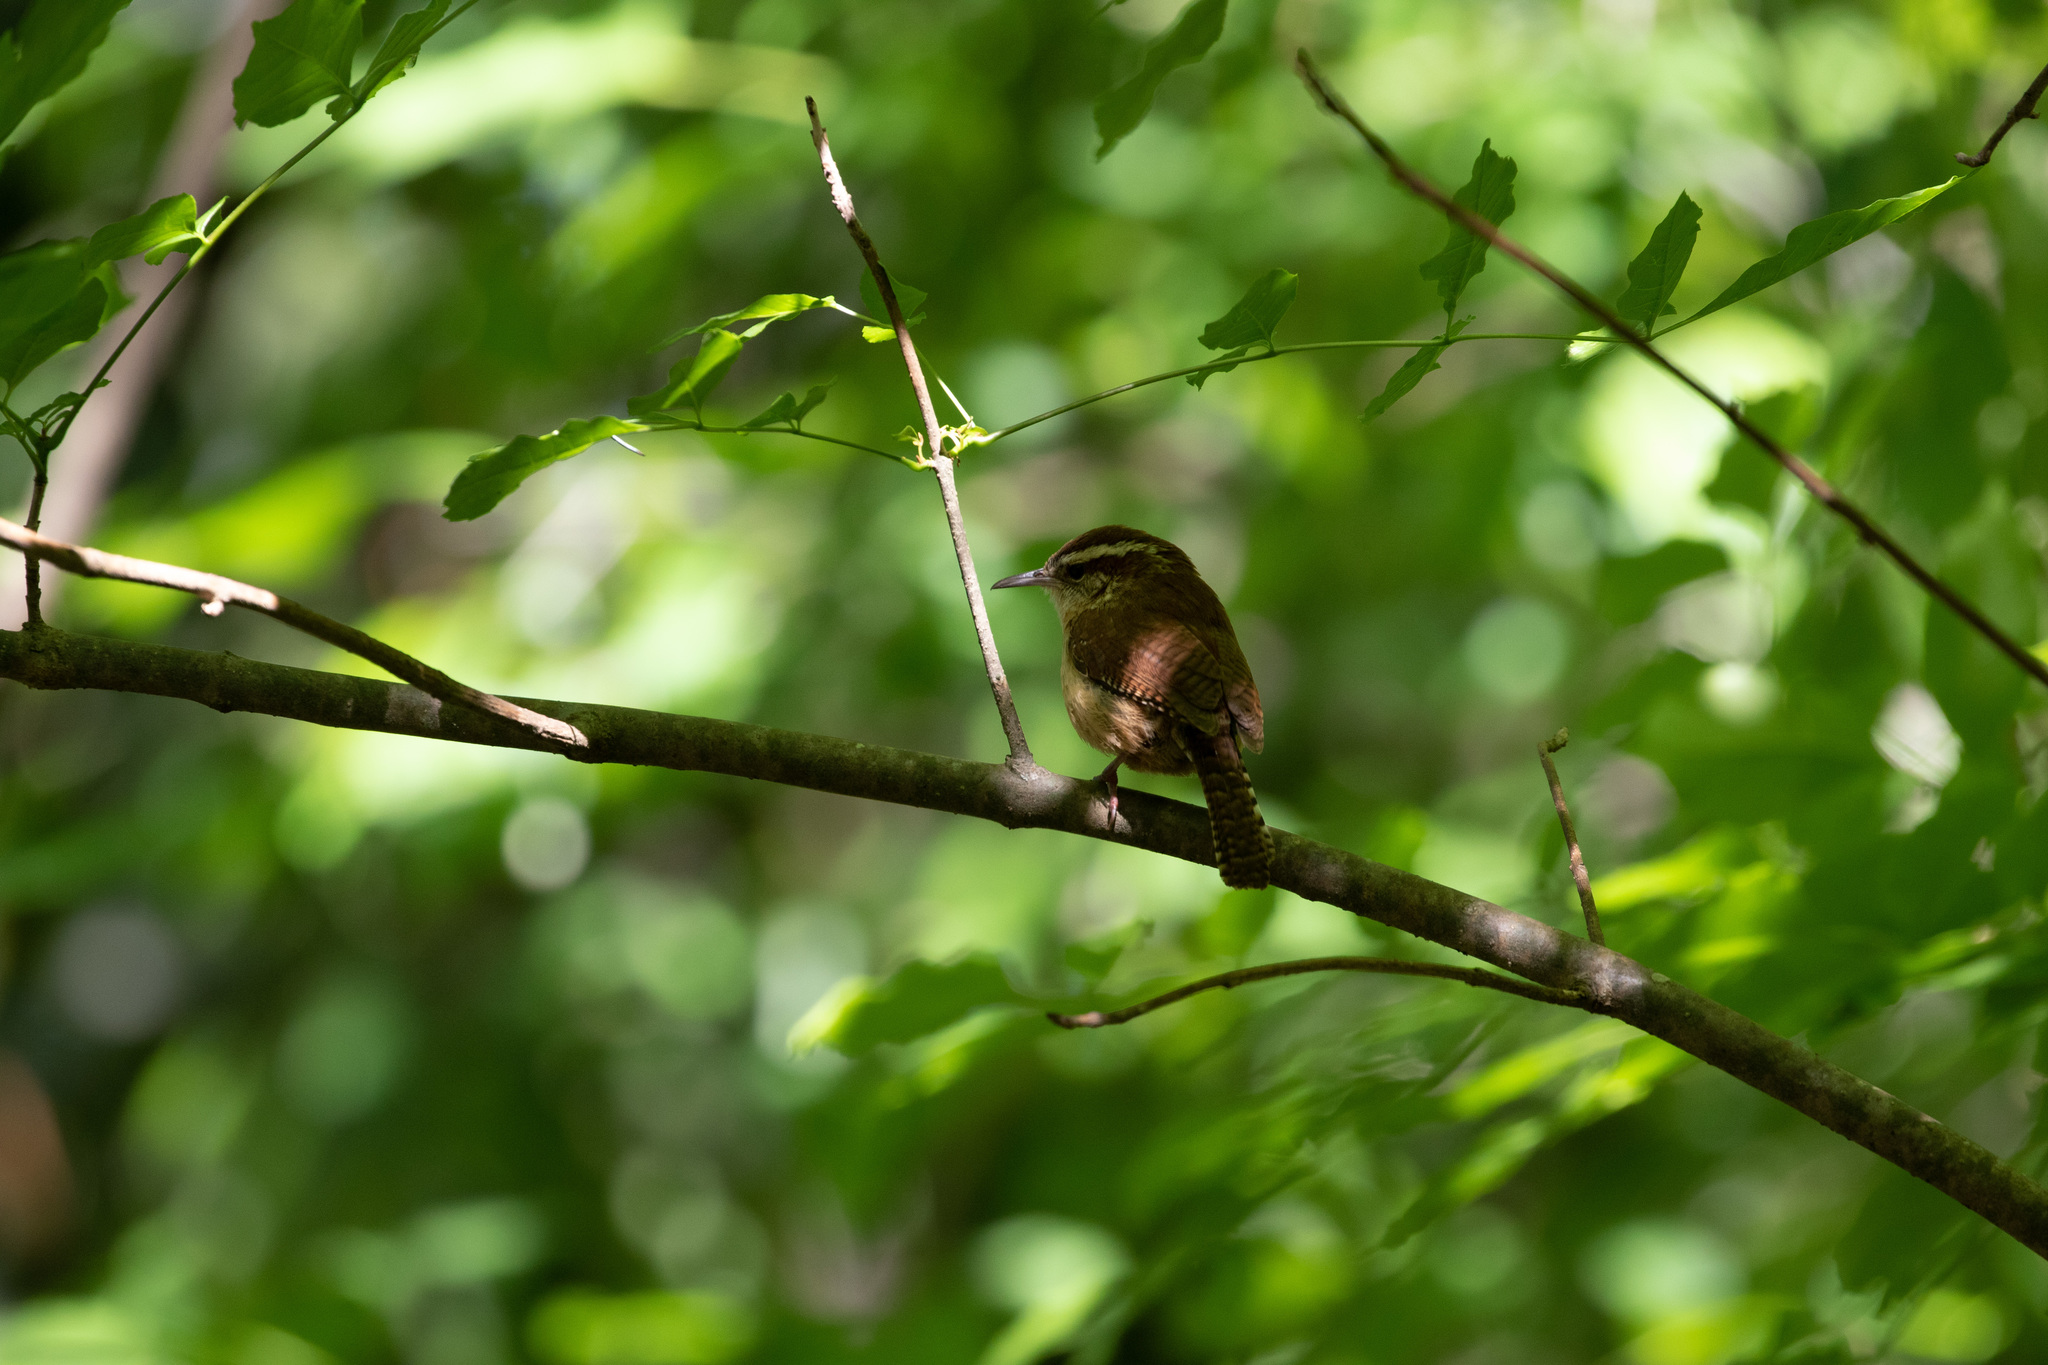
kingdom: Animalia
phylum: Chordata
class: Aves
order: Passeriformes
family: Troglodytidae
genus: Thryothorus
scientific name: Thryothorus ludovicianus
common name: Carolina wren
